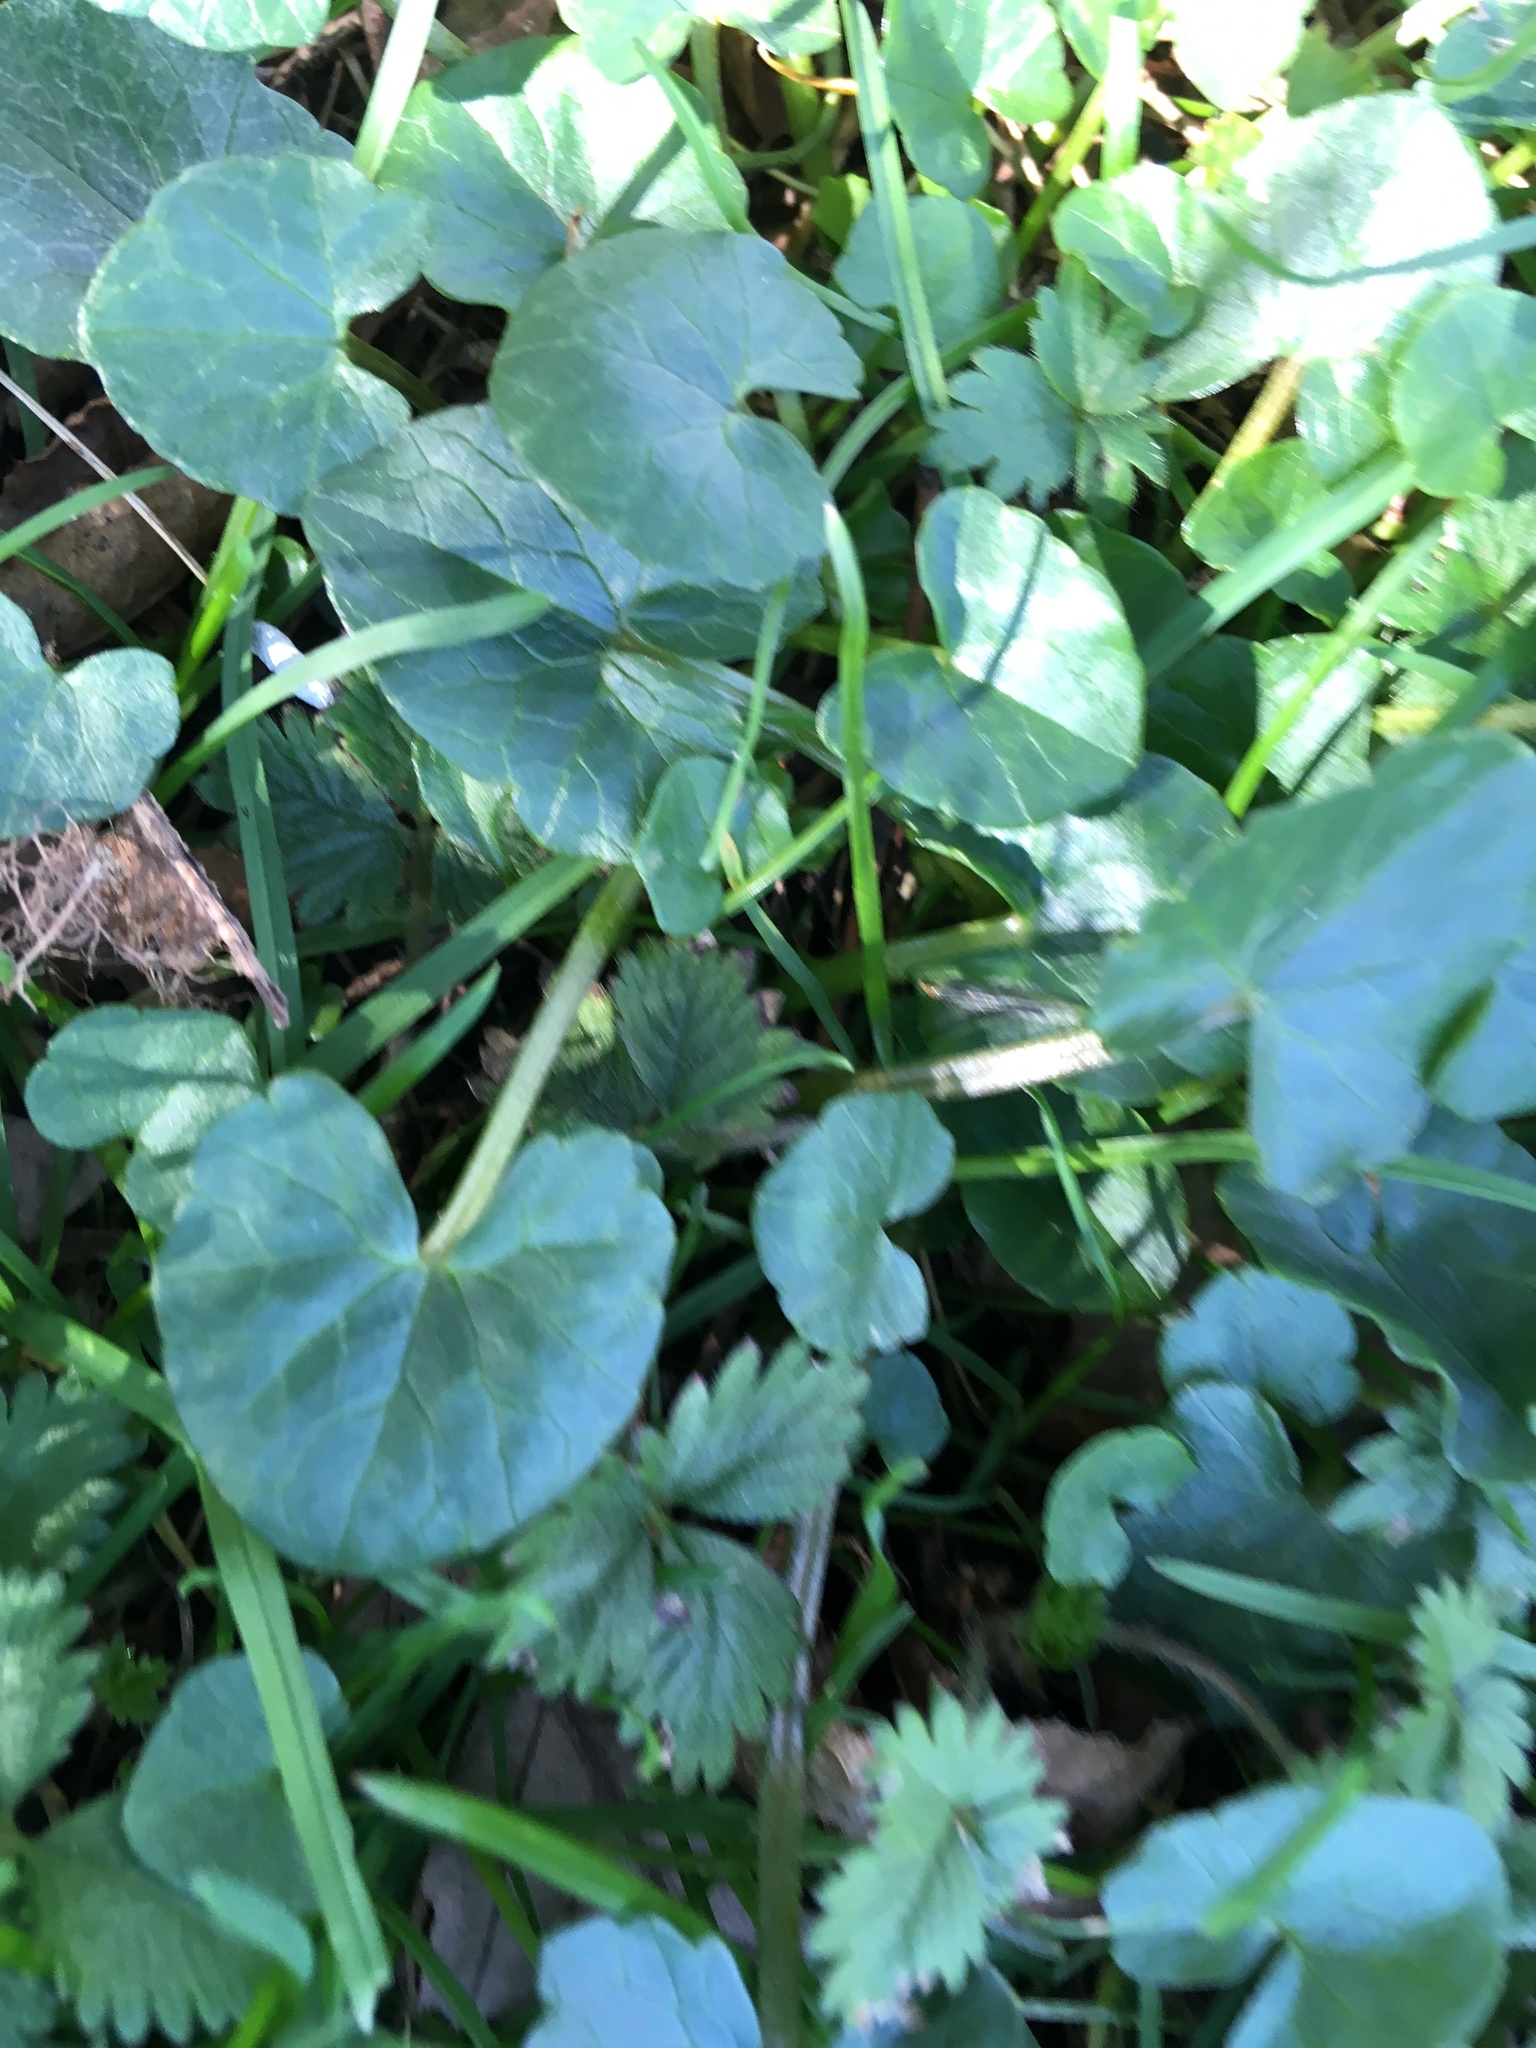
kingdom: Plantae
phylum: Tracheophyta
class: Magnoliopsida
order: Ranunculales
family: Ranunculaceae
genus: Ficaria
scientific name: Ficaria verna
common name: Lesser celandine
